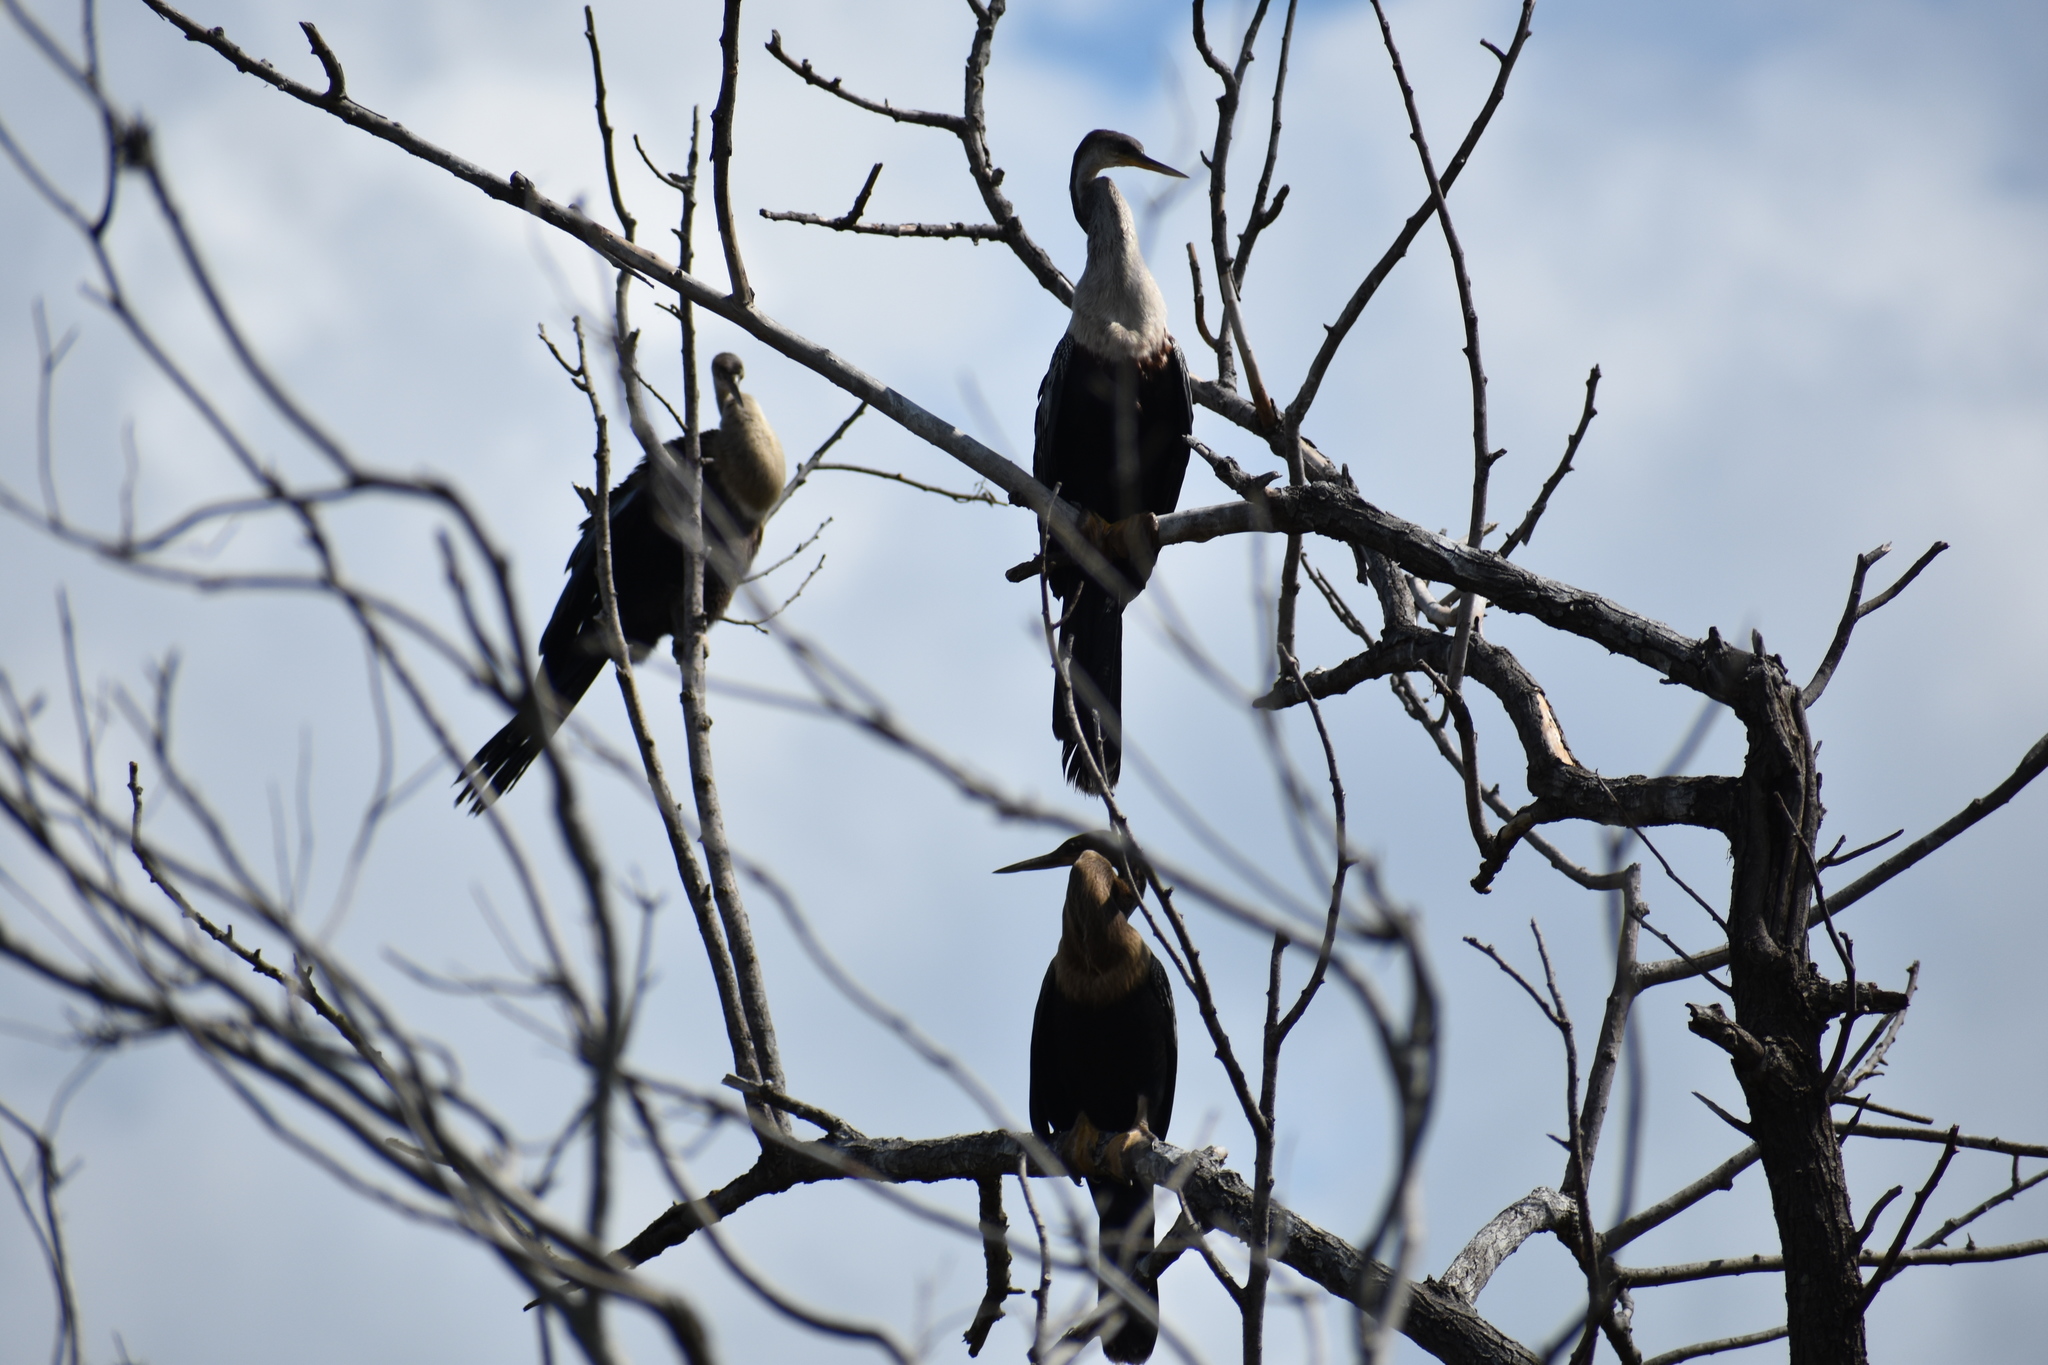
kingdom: Animalia
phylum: Chordata
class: Aves
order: Suliformes
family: Anhingidae
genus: Anhinga
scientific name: Anhinga anhinga
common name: Anhinga
